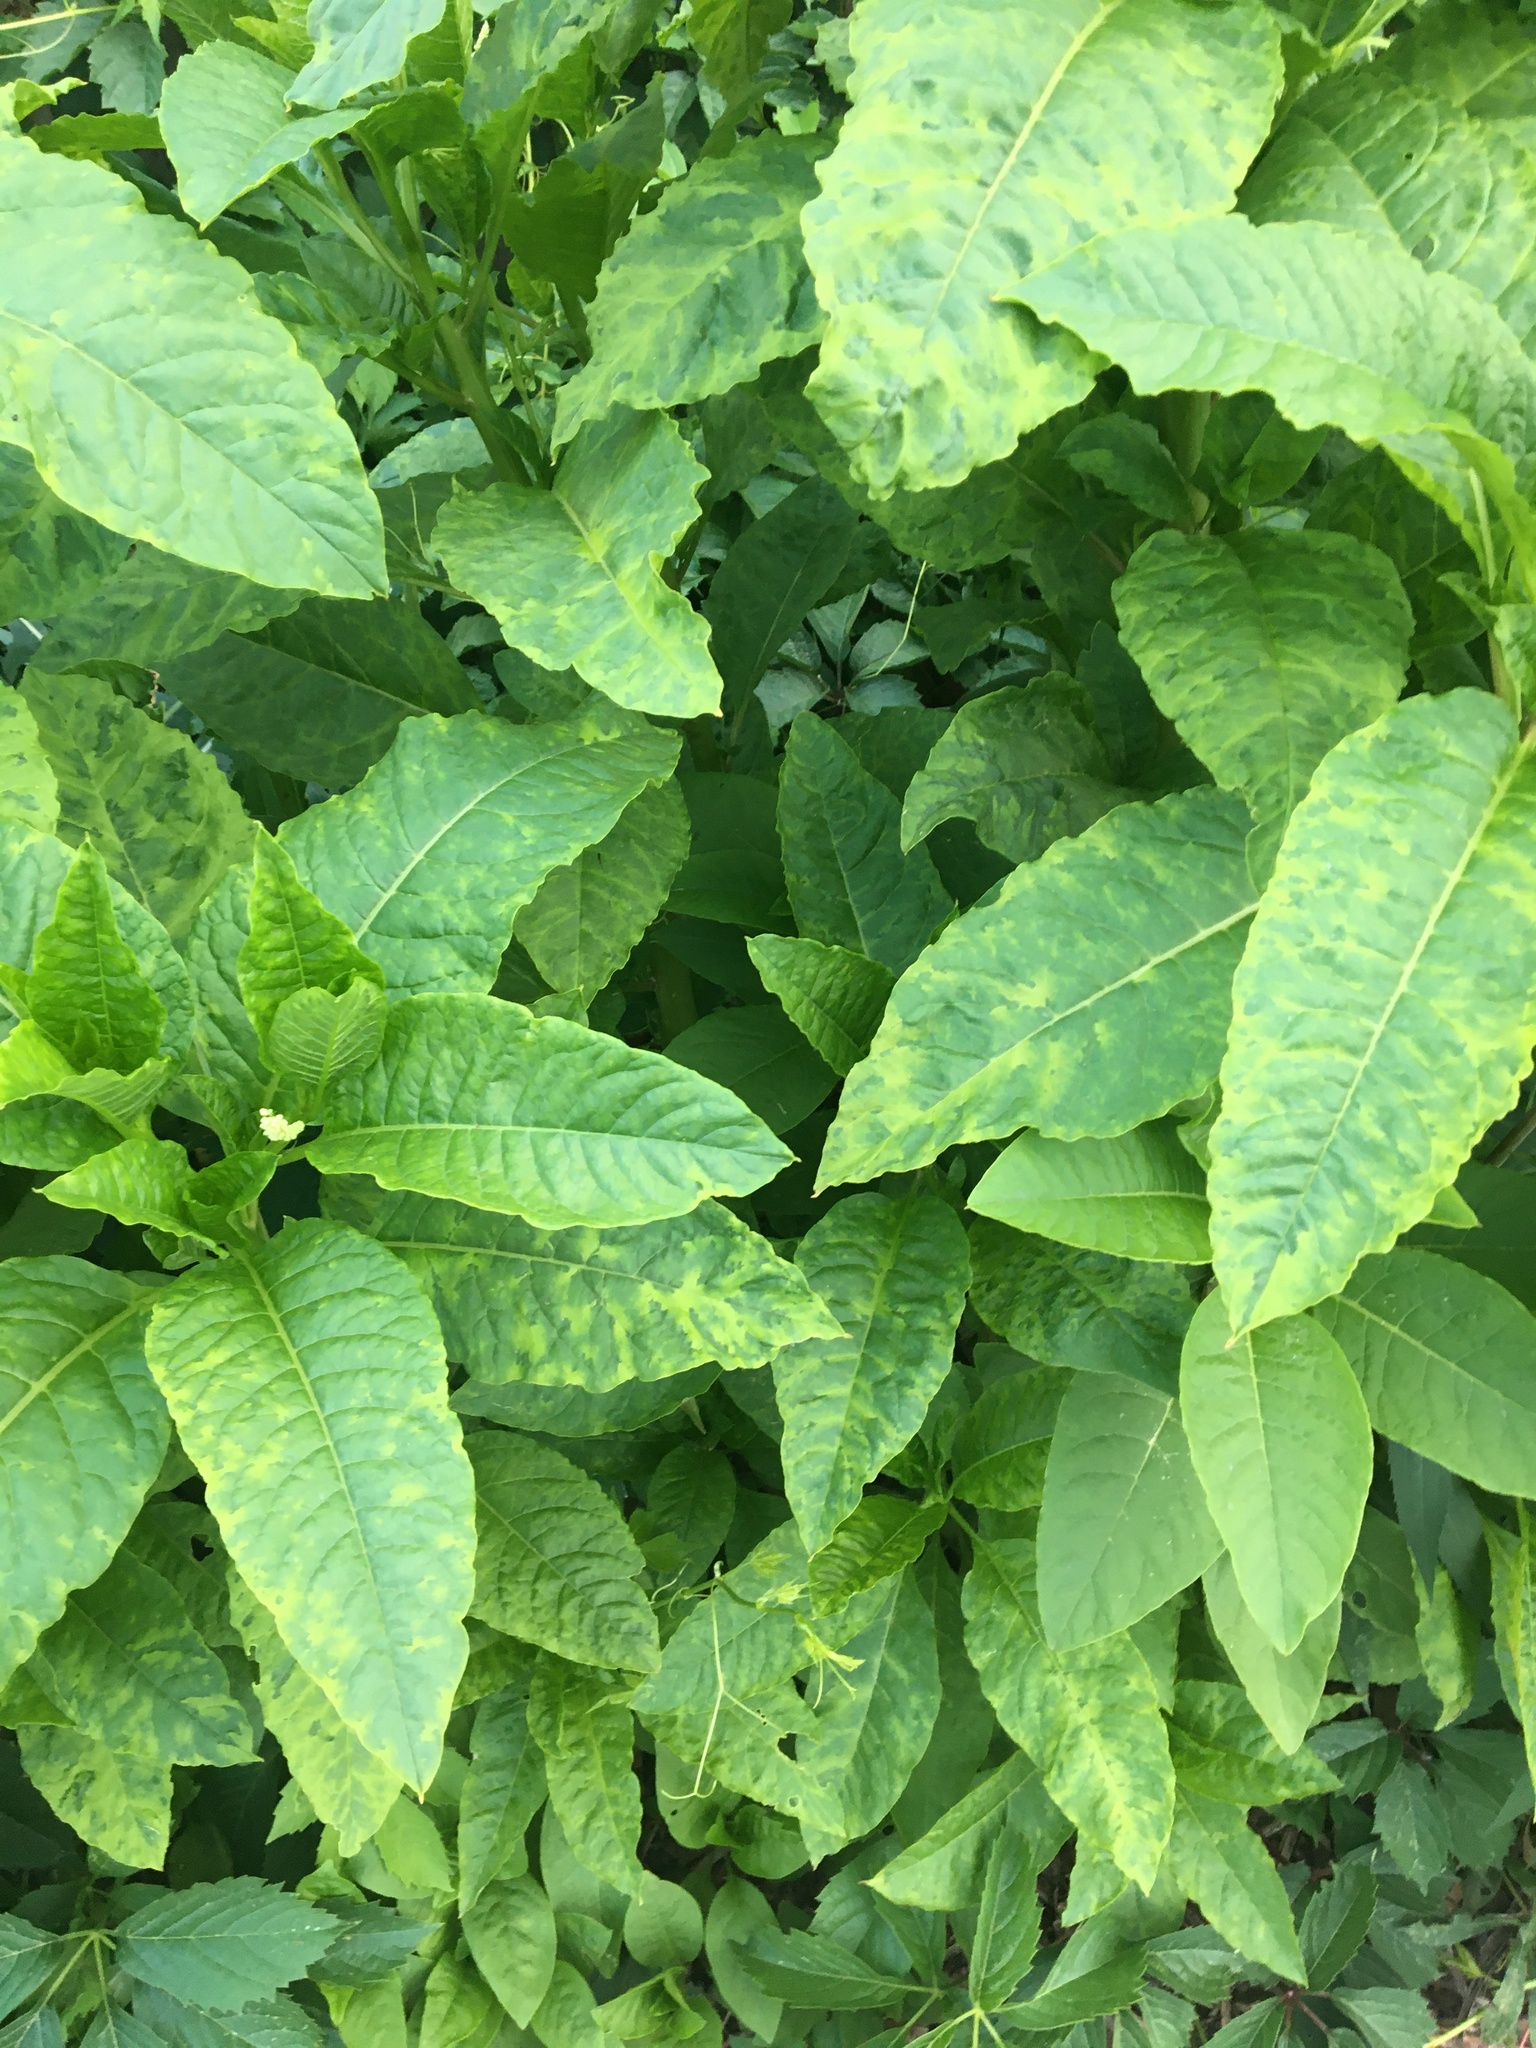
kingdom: Viruses
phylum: Pisuviricota
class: Stelpaviricetes
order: Patatavirales
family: Potyviridae
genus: Potyvirus
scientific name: Potyvirus Pokeweed mosaic virus
